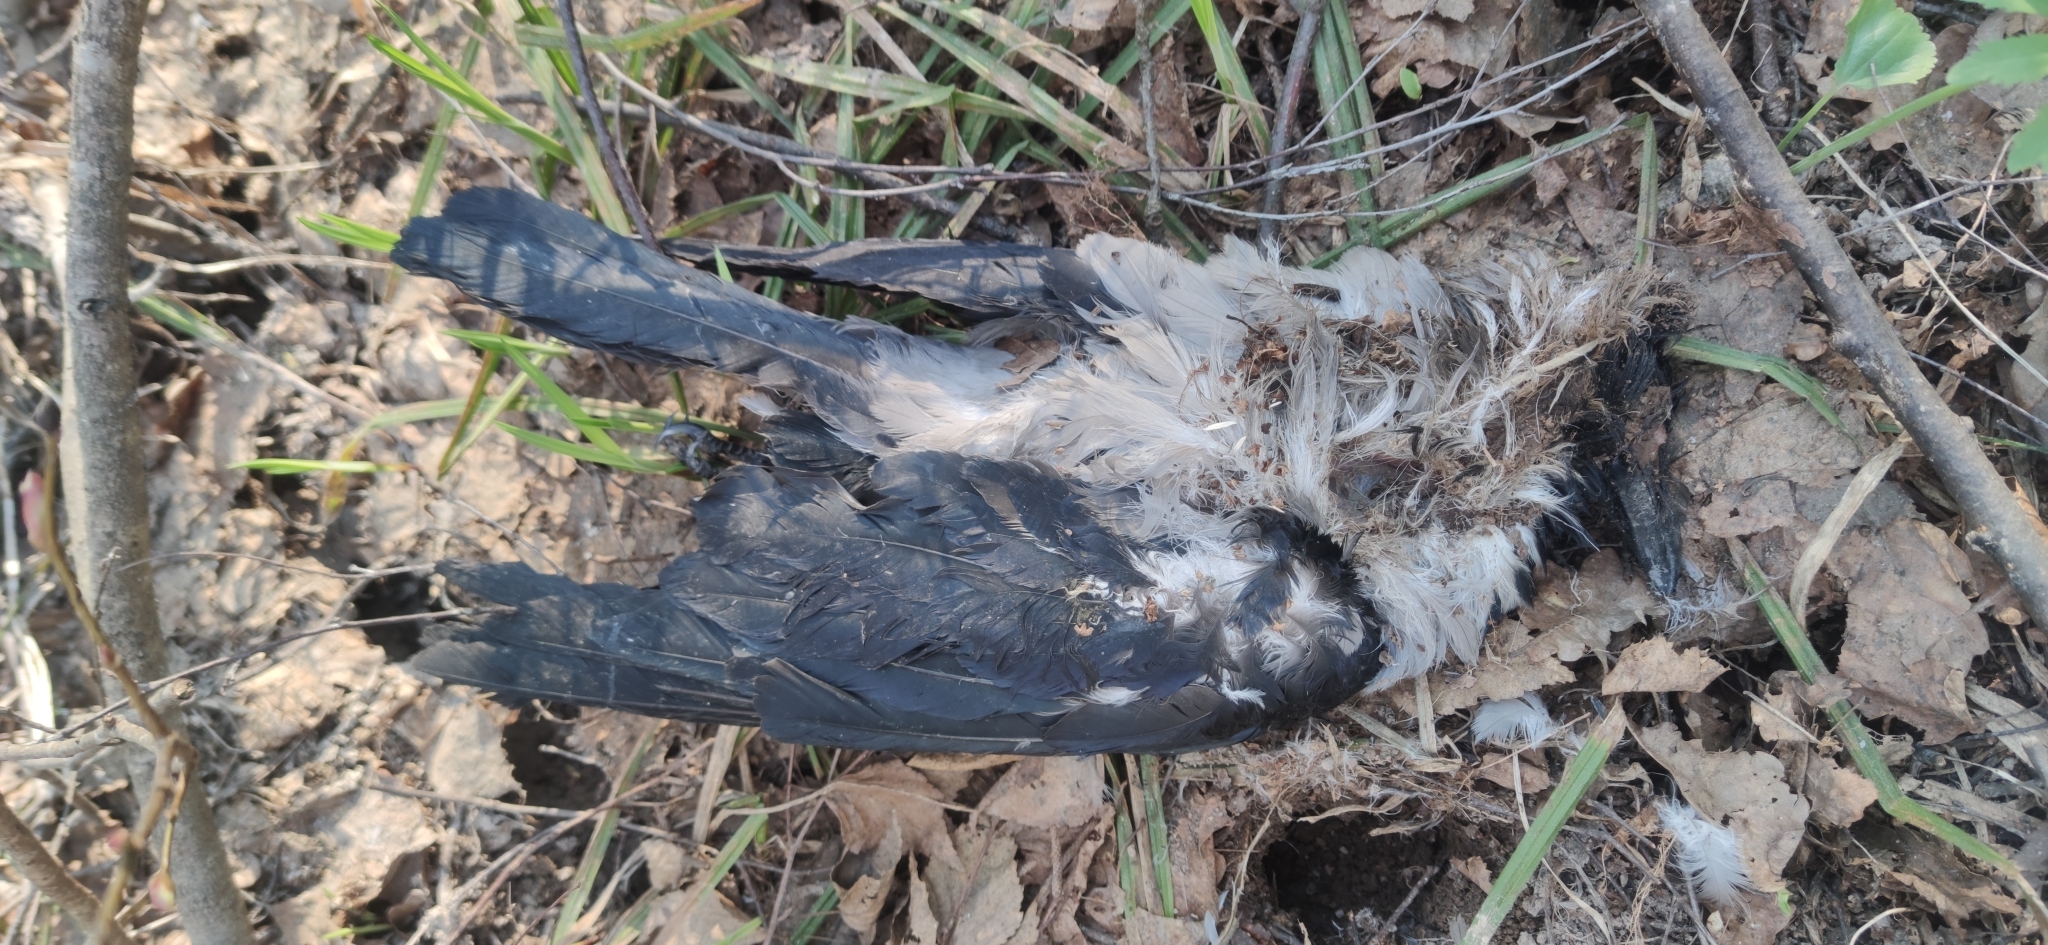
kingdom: Animalia
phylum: Chordata
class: Aves
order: Passeriformes
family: Corvidae
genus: Corvus
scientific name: Corvus cornix
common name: Hooded crow
